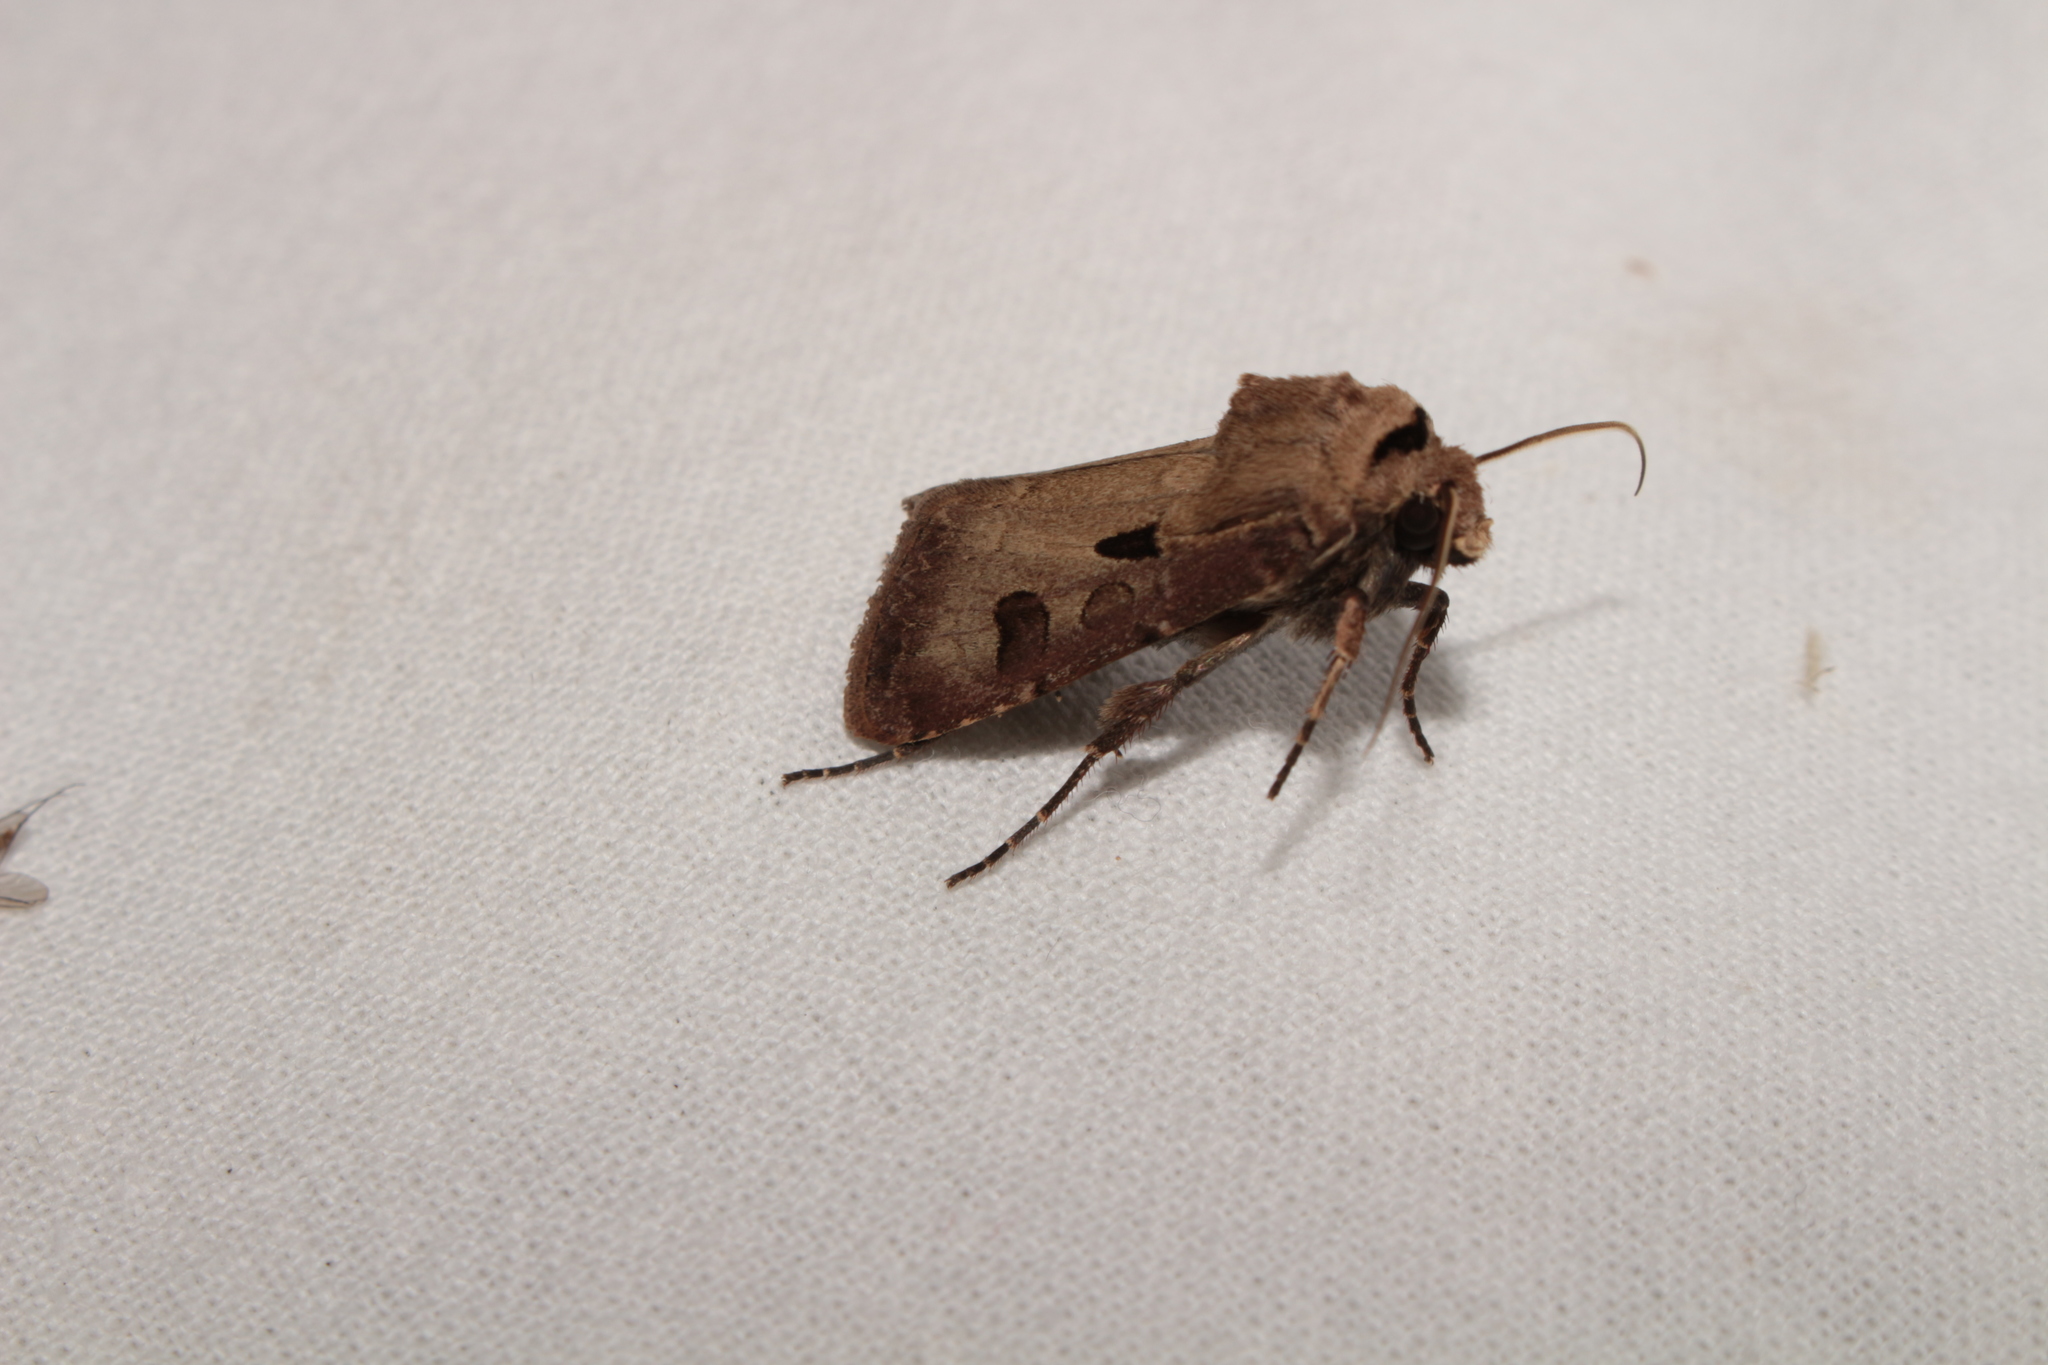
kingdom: Animalia
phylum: Arthropoda
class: Insecta
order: Lepidoptera
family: Noctuidae
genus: Agrotis
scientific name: Agrotis exclamationis
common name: Heart and dart
